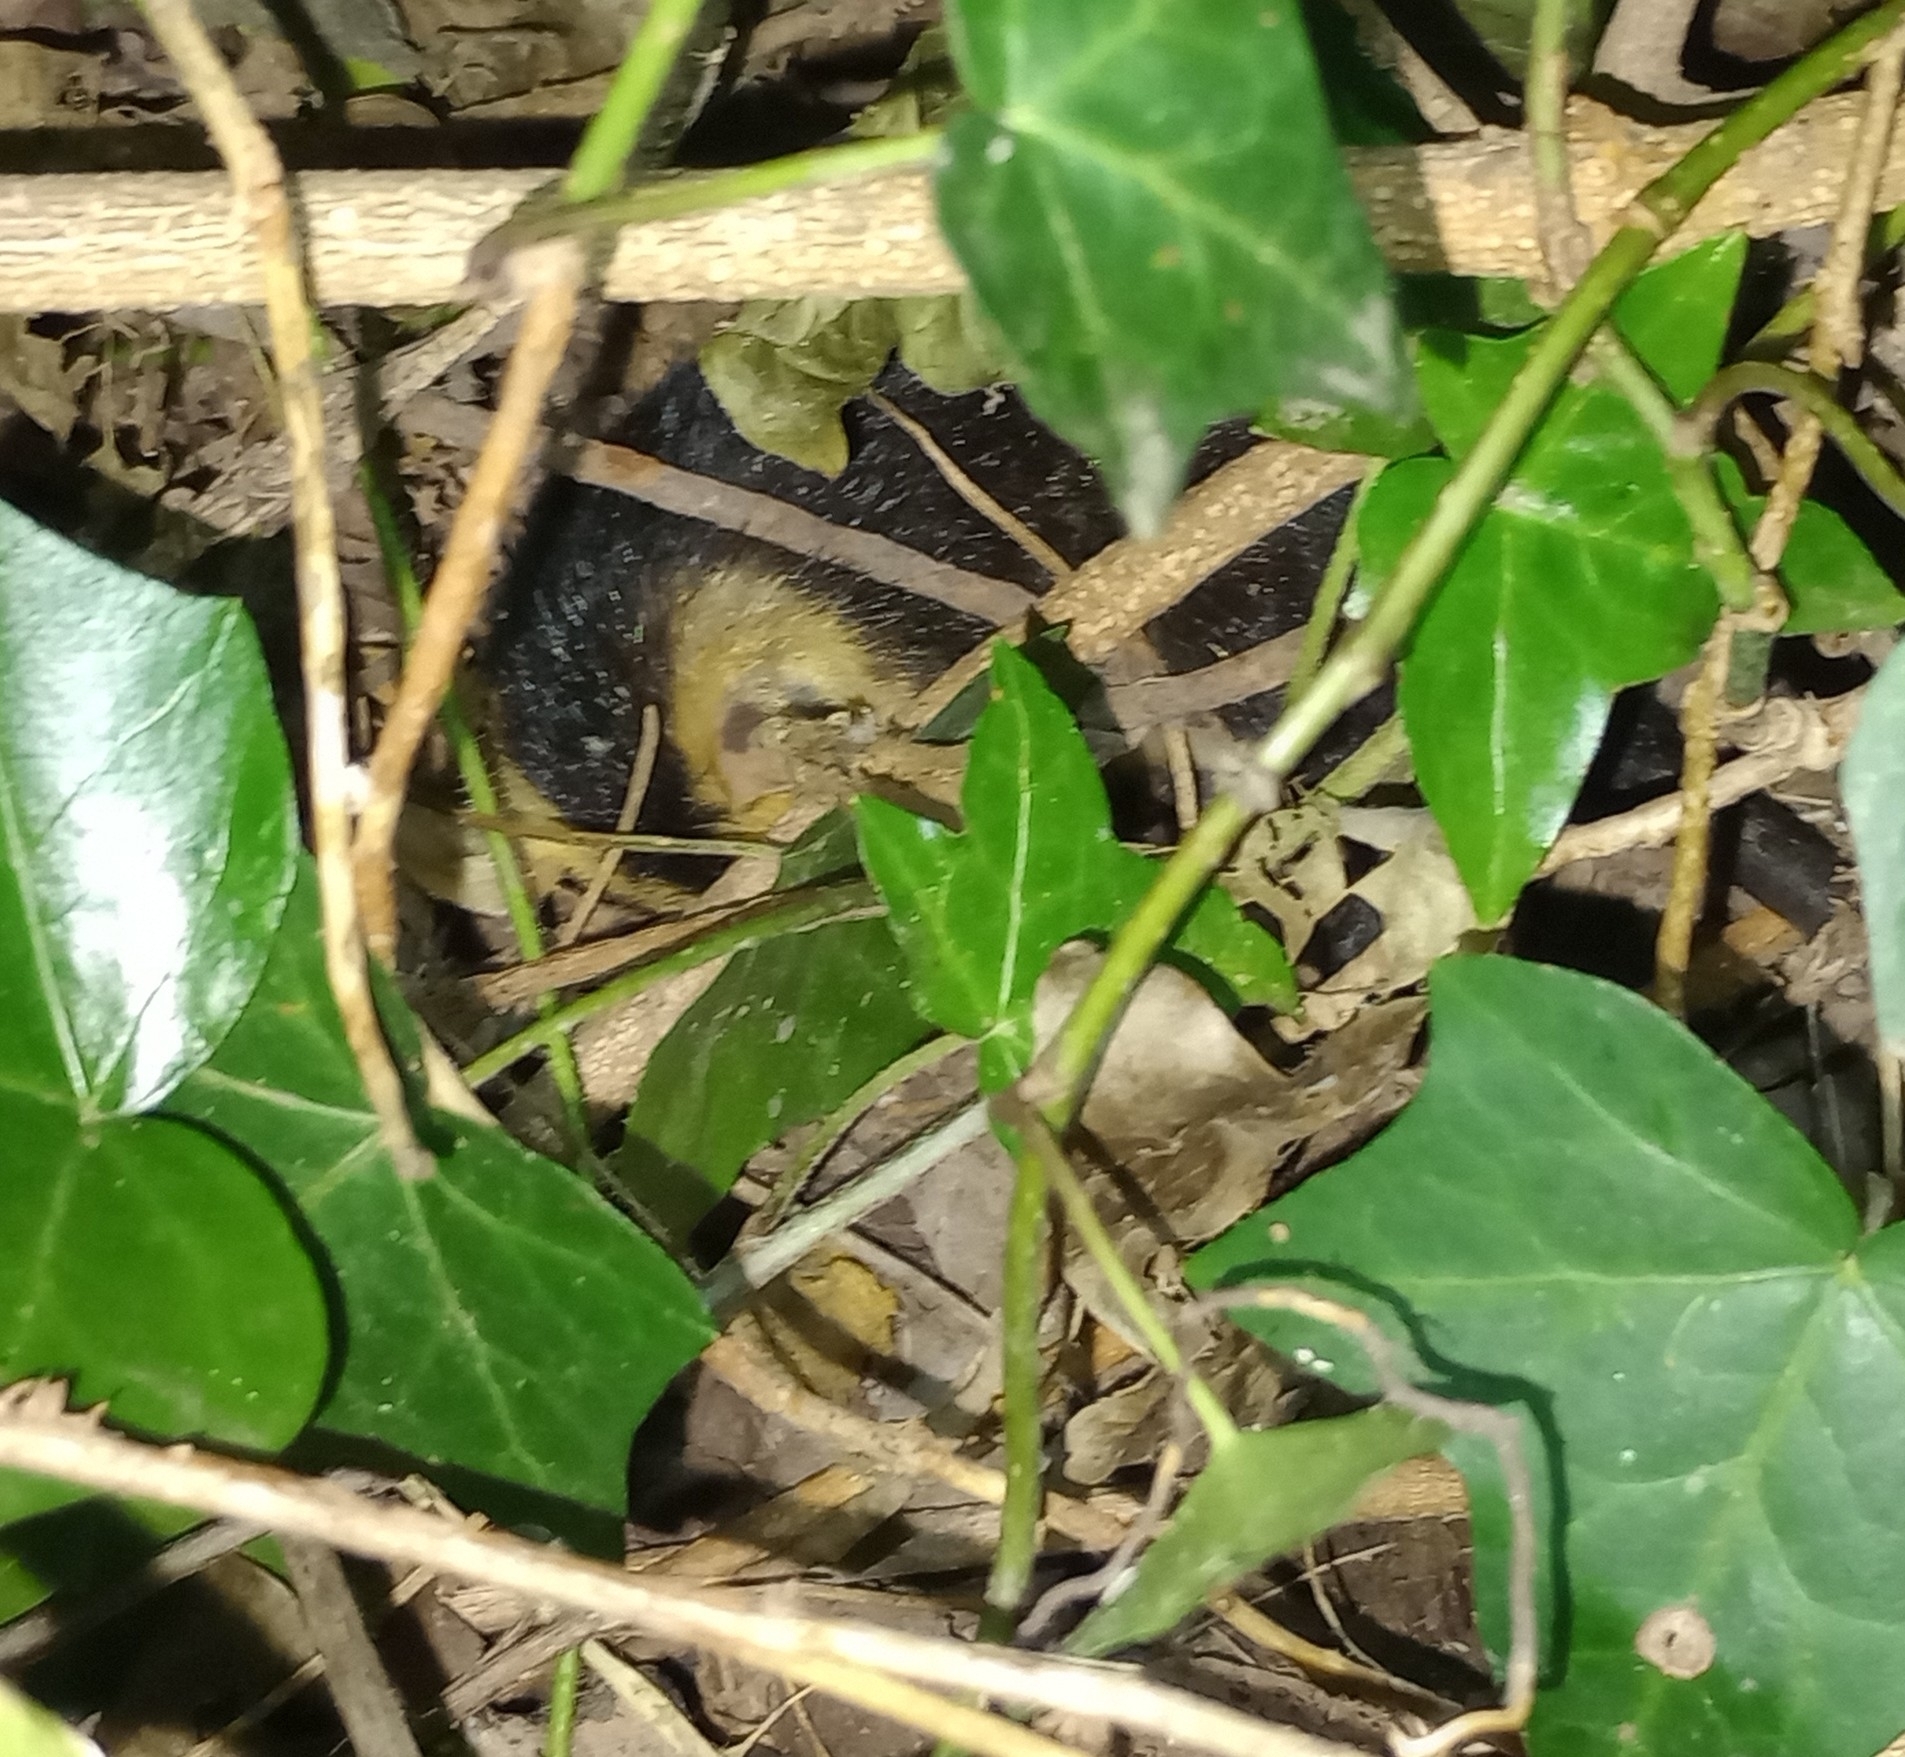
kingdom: Animalia
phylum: Chordata
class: Mammalia
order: Didelphimorphia
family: Didelphidae
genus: Didelphis
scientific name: Didelphis albiventris
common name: White-eared opossum
